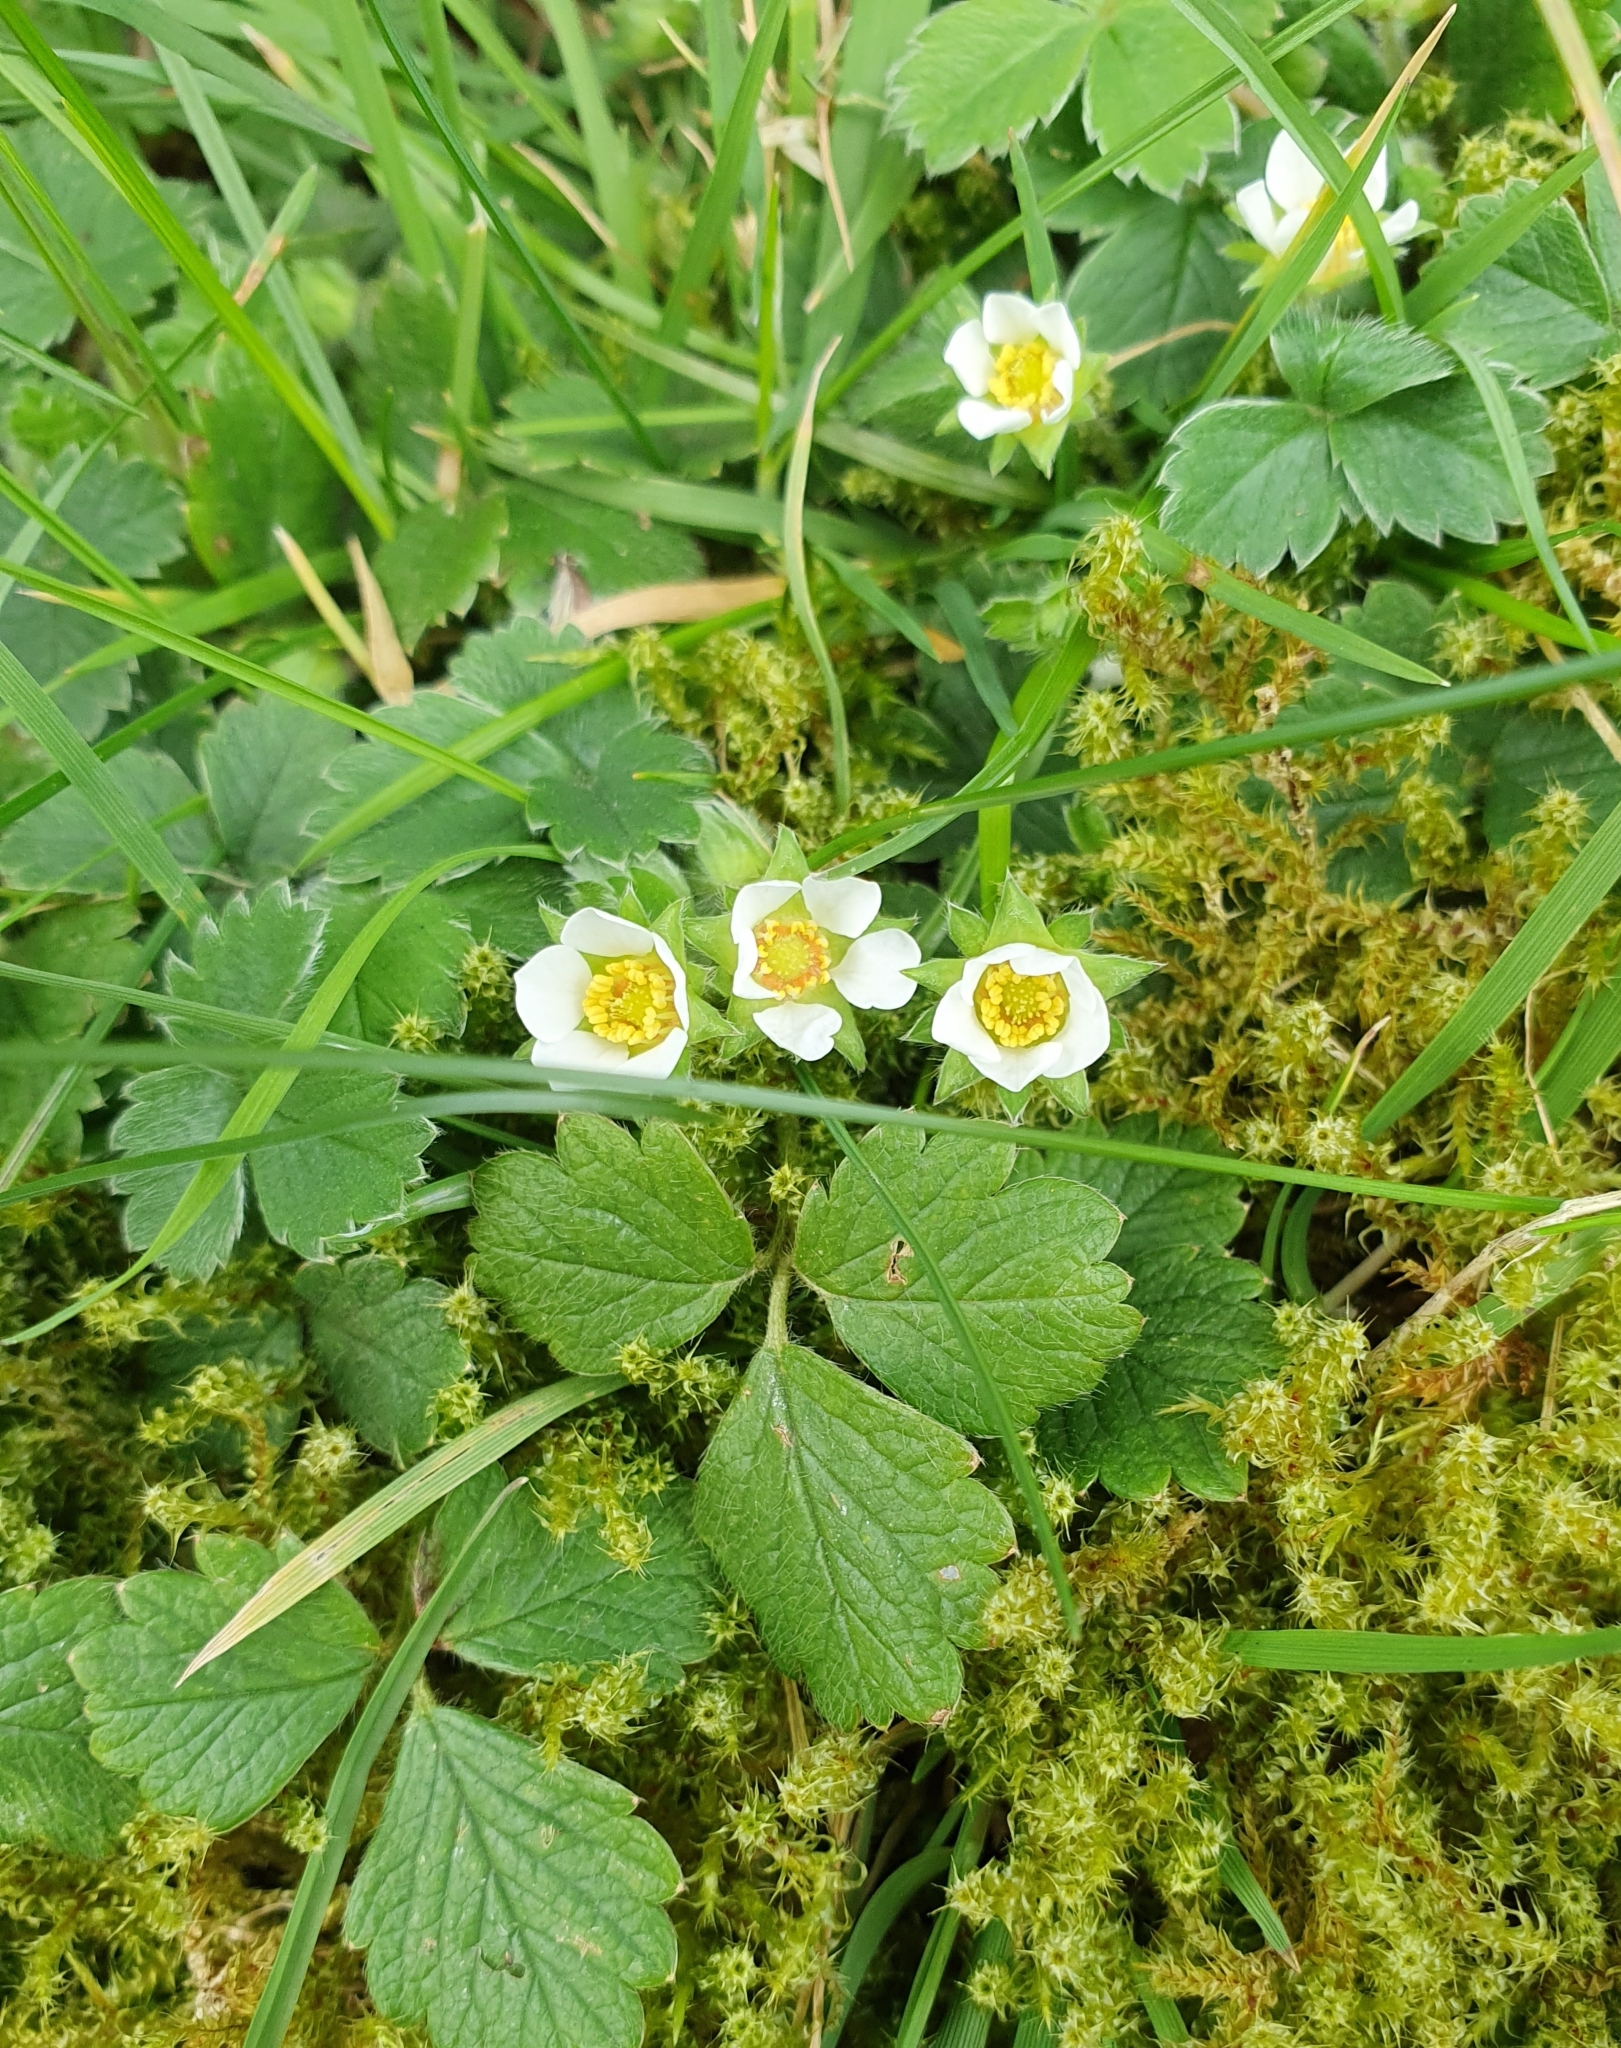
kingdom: Plantae
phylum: Tracheophyta
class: Magnoliopsida
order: Rosales
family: Rosaceae
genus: Potentilla
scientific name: Potentilla sterilis
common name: Barren strawberry
